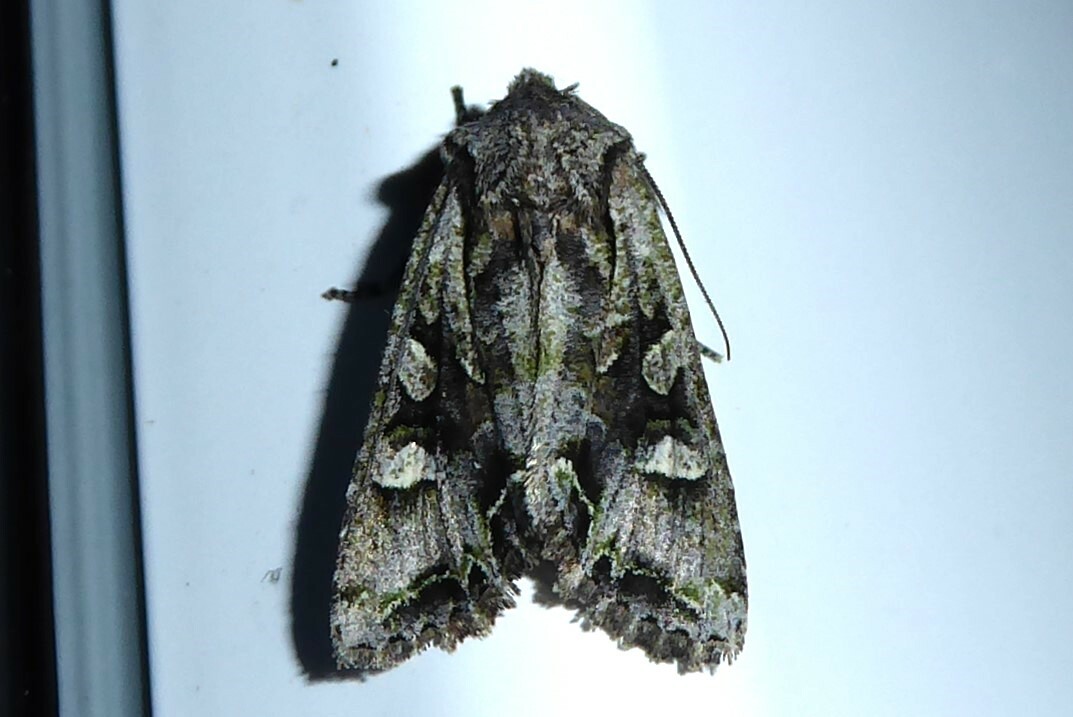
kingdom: Animalia
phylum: Arthropoda
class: Insecta
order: Lepidoptera
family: Noctuidae
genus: Ichneutica
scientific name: Ichneutica insignis
